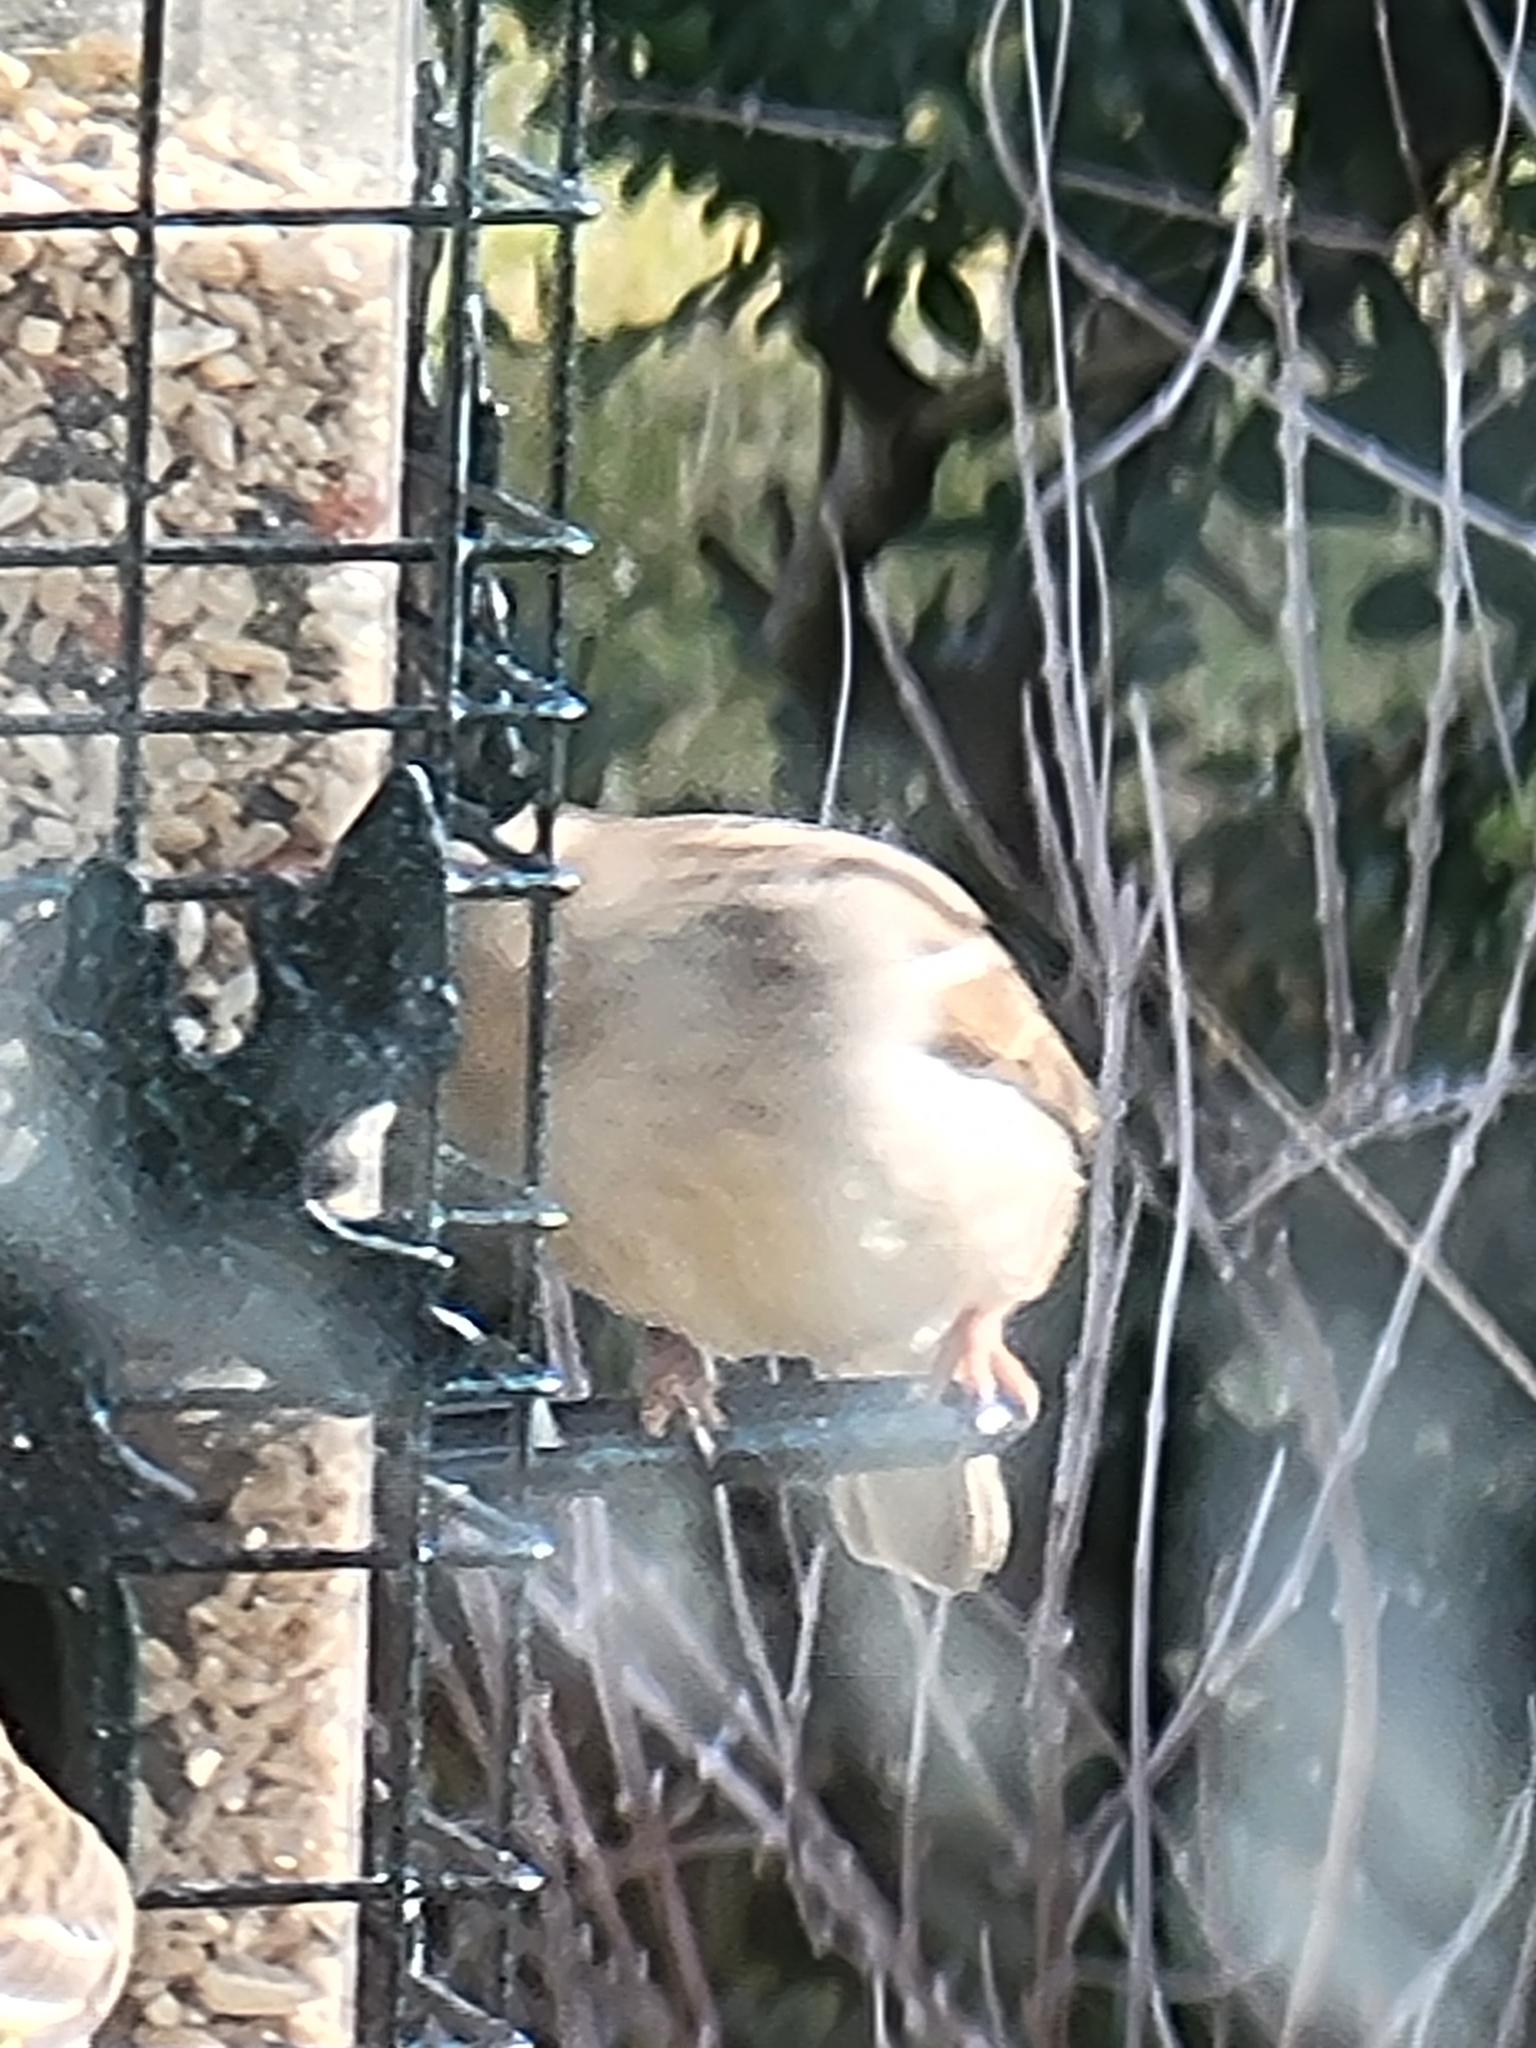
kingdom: Animalia
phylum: Chordata
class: Aves
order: Passeriformes
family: Passeridae
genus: Passer
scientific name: Passer domesticus
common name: House sparrow
